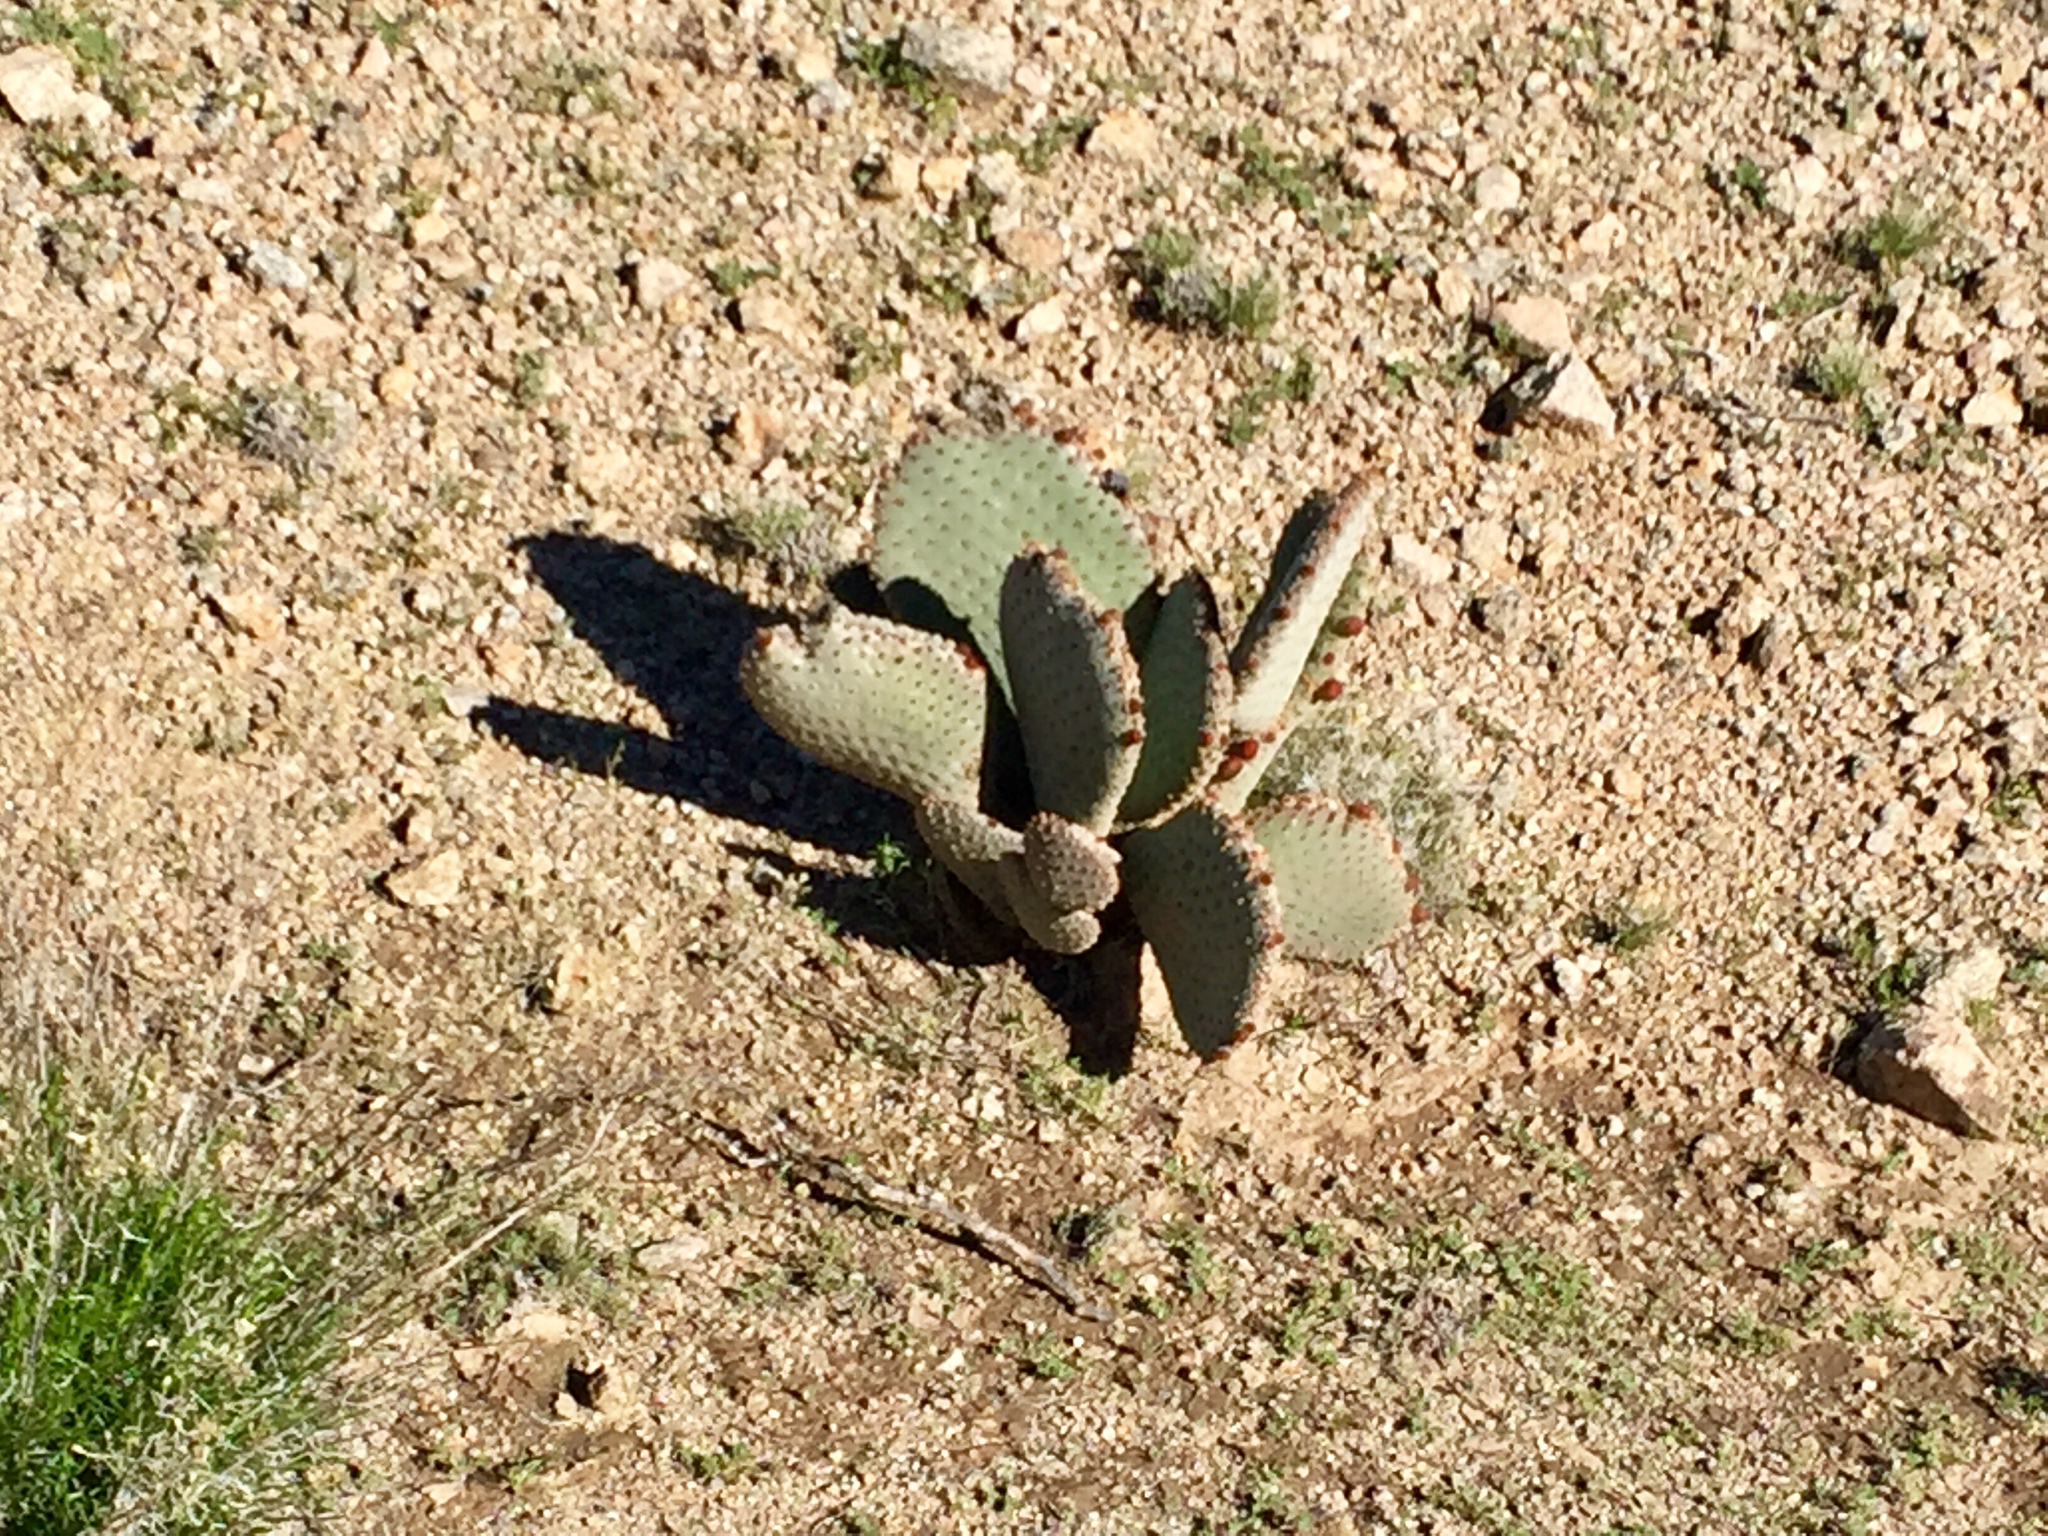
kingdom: Plantae
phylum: Tracheophyta
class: Magnoliopsida
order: Caryophyllales
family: Cactaceae
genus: Opuntia
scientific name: Opuntia basilaris
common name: Beavertail prickly-pear
